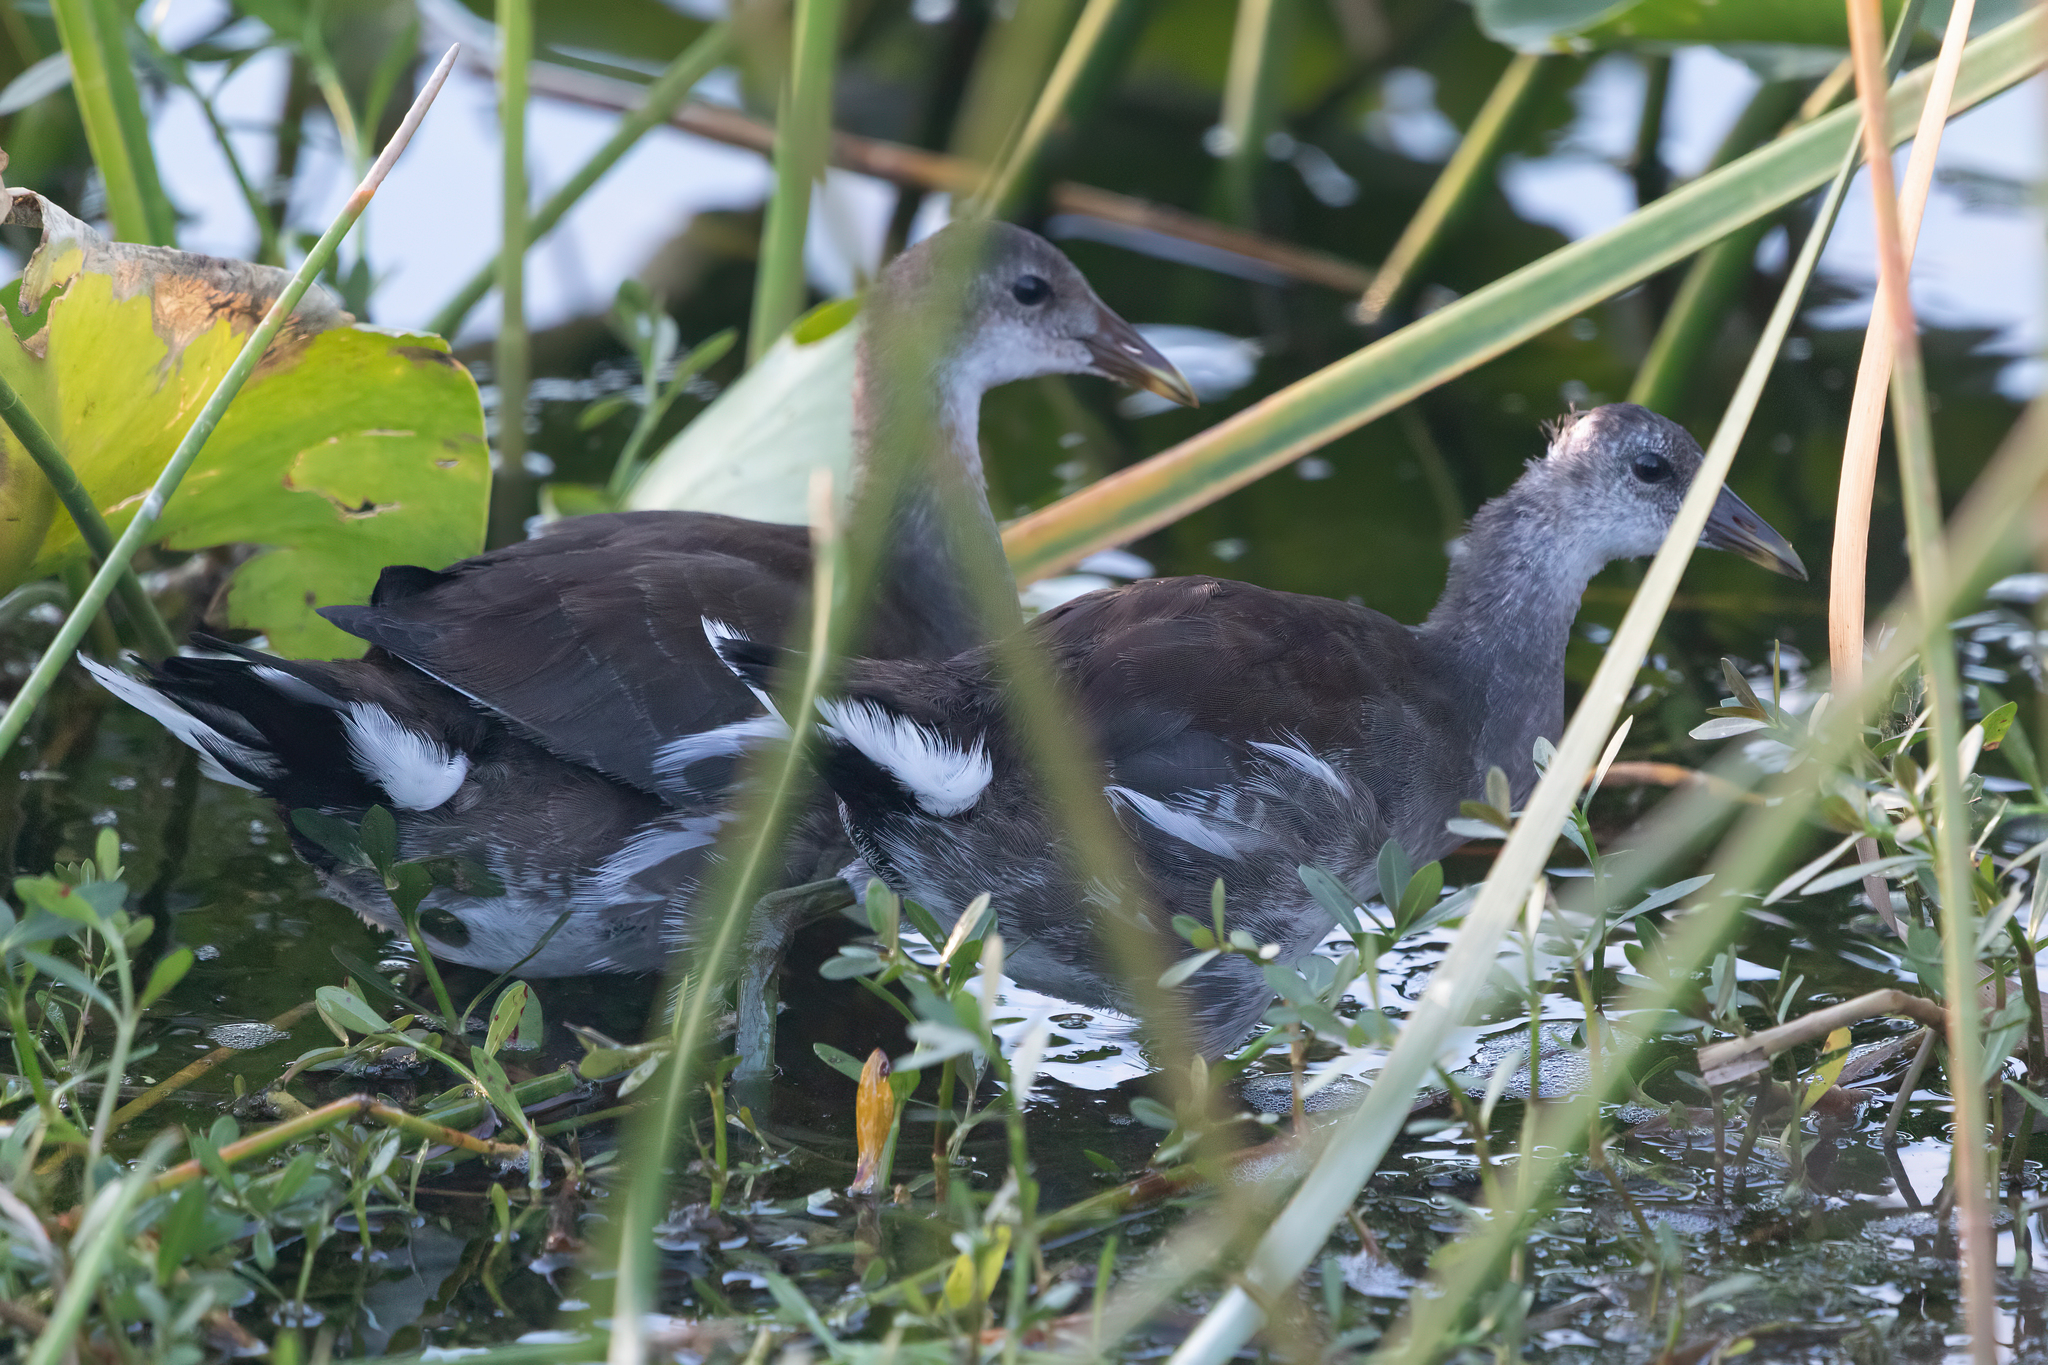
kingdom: Animalia
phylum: Chordata
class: Aves
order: Gruiformes
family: Rallidae
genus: Gallinula
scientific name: Gallinula chloropus
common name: Common moorhen
